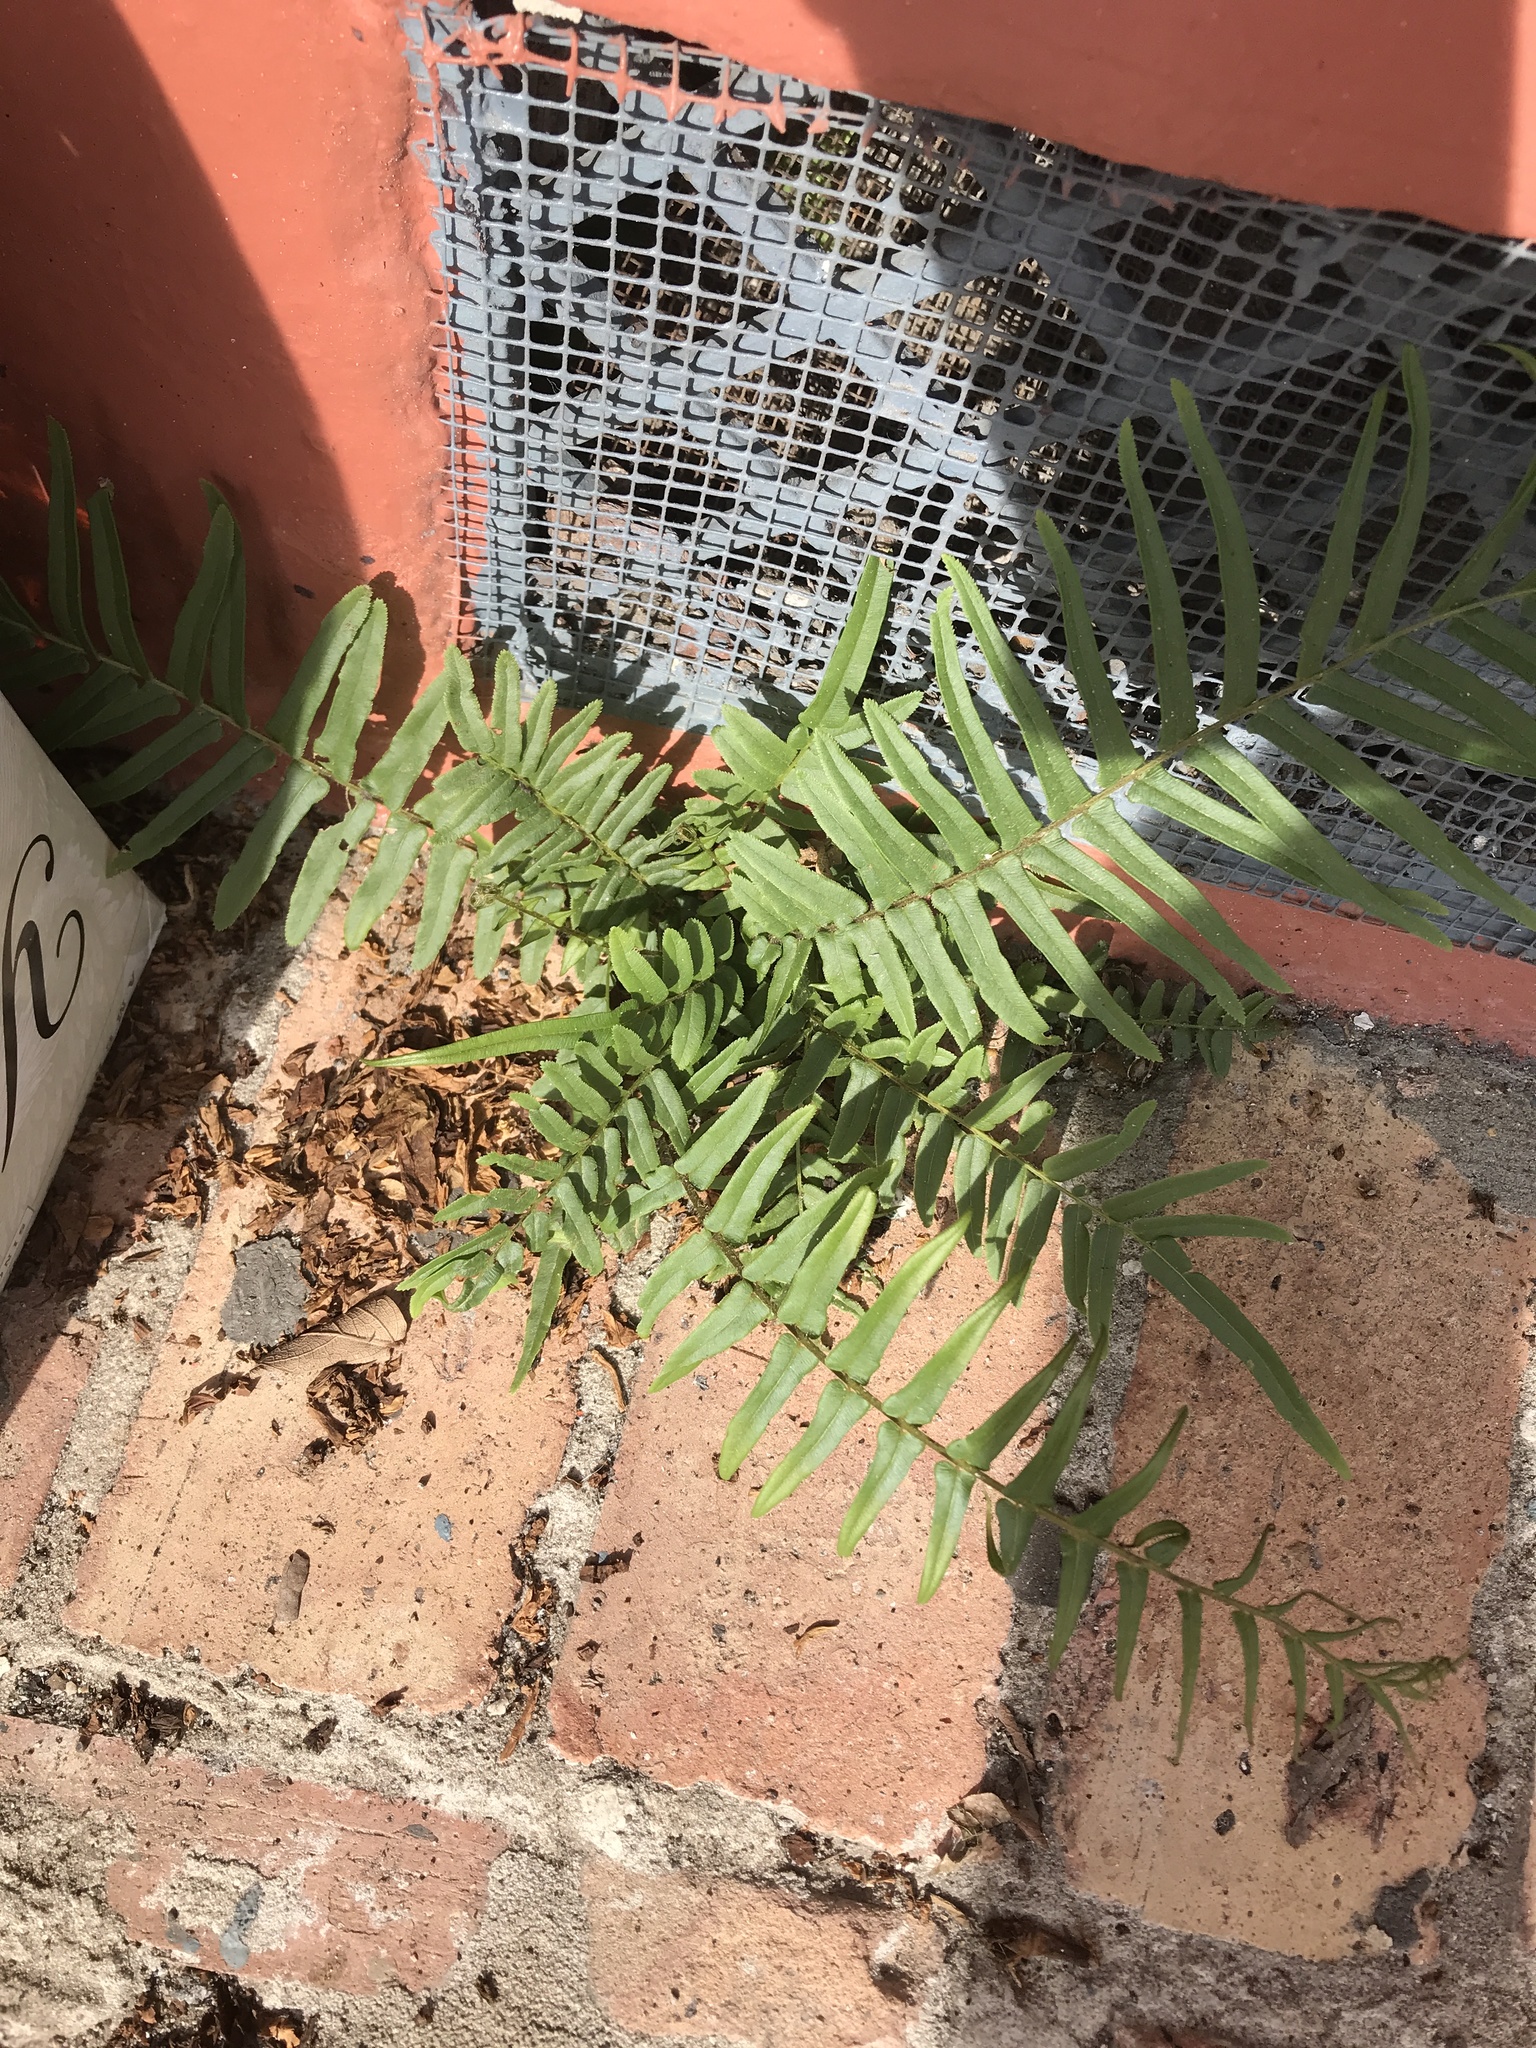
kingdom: Plantae
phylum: Tracheophyta
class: Polypodiopsida
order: Polypodiales
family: Pteridaceae
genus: Pteris
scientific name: Pteris vittata
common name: Ladder brake
